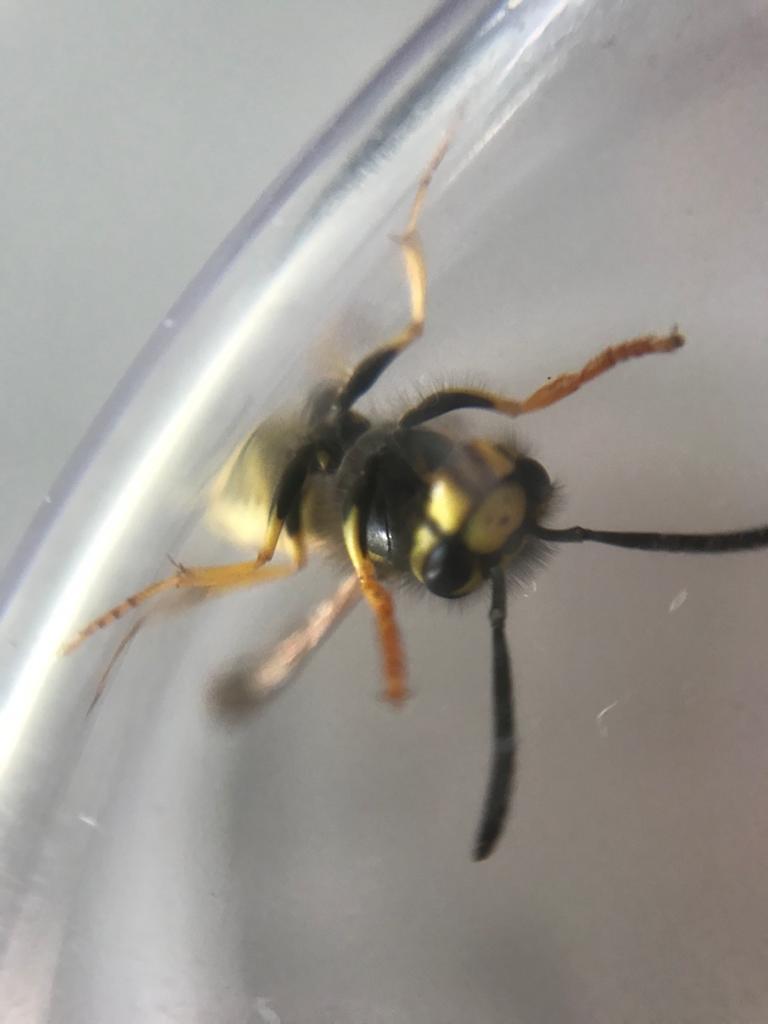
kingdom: Animalia
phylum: Arthropoda
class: Insecta
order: Hymenoptera
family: Vespidae
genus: Vespula
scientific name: Vespula germanica
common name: German wasp
